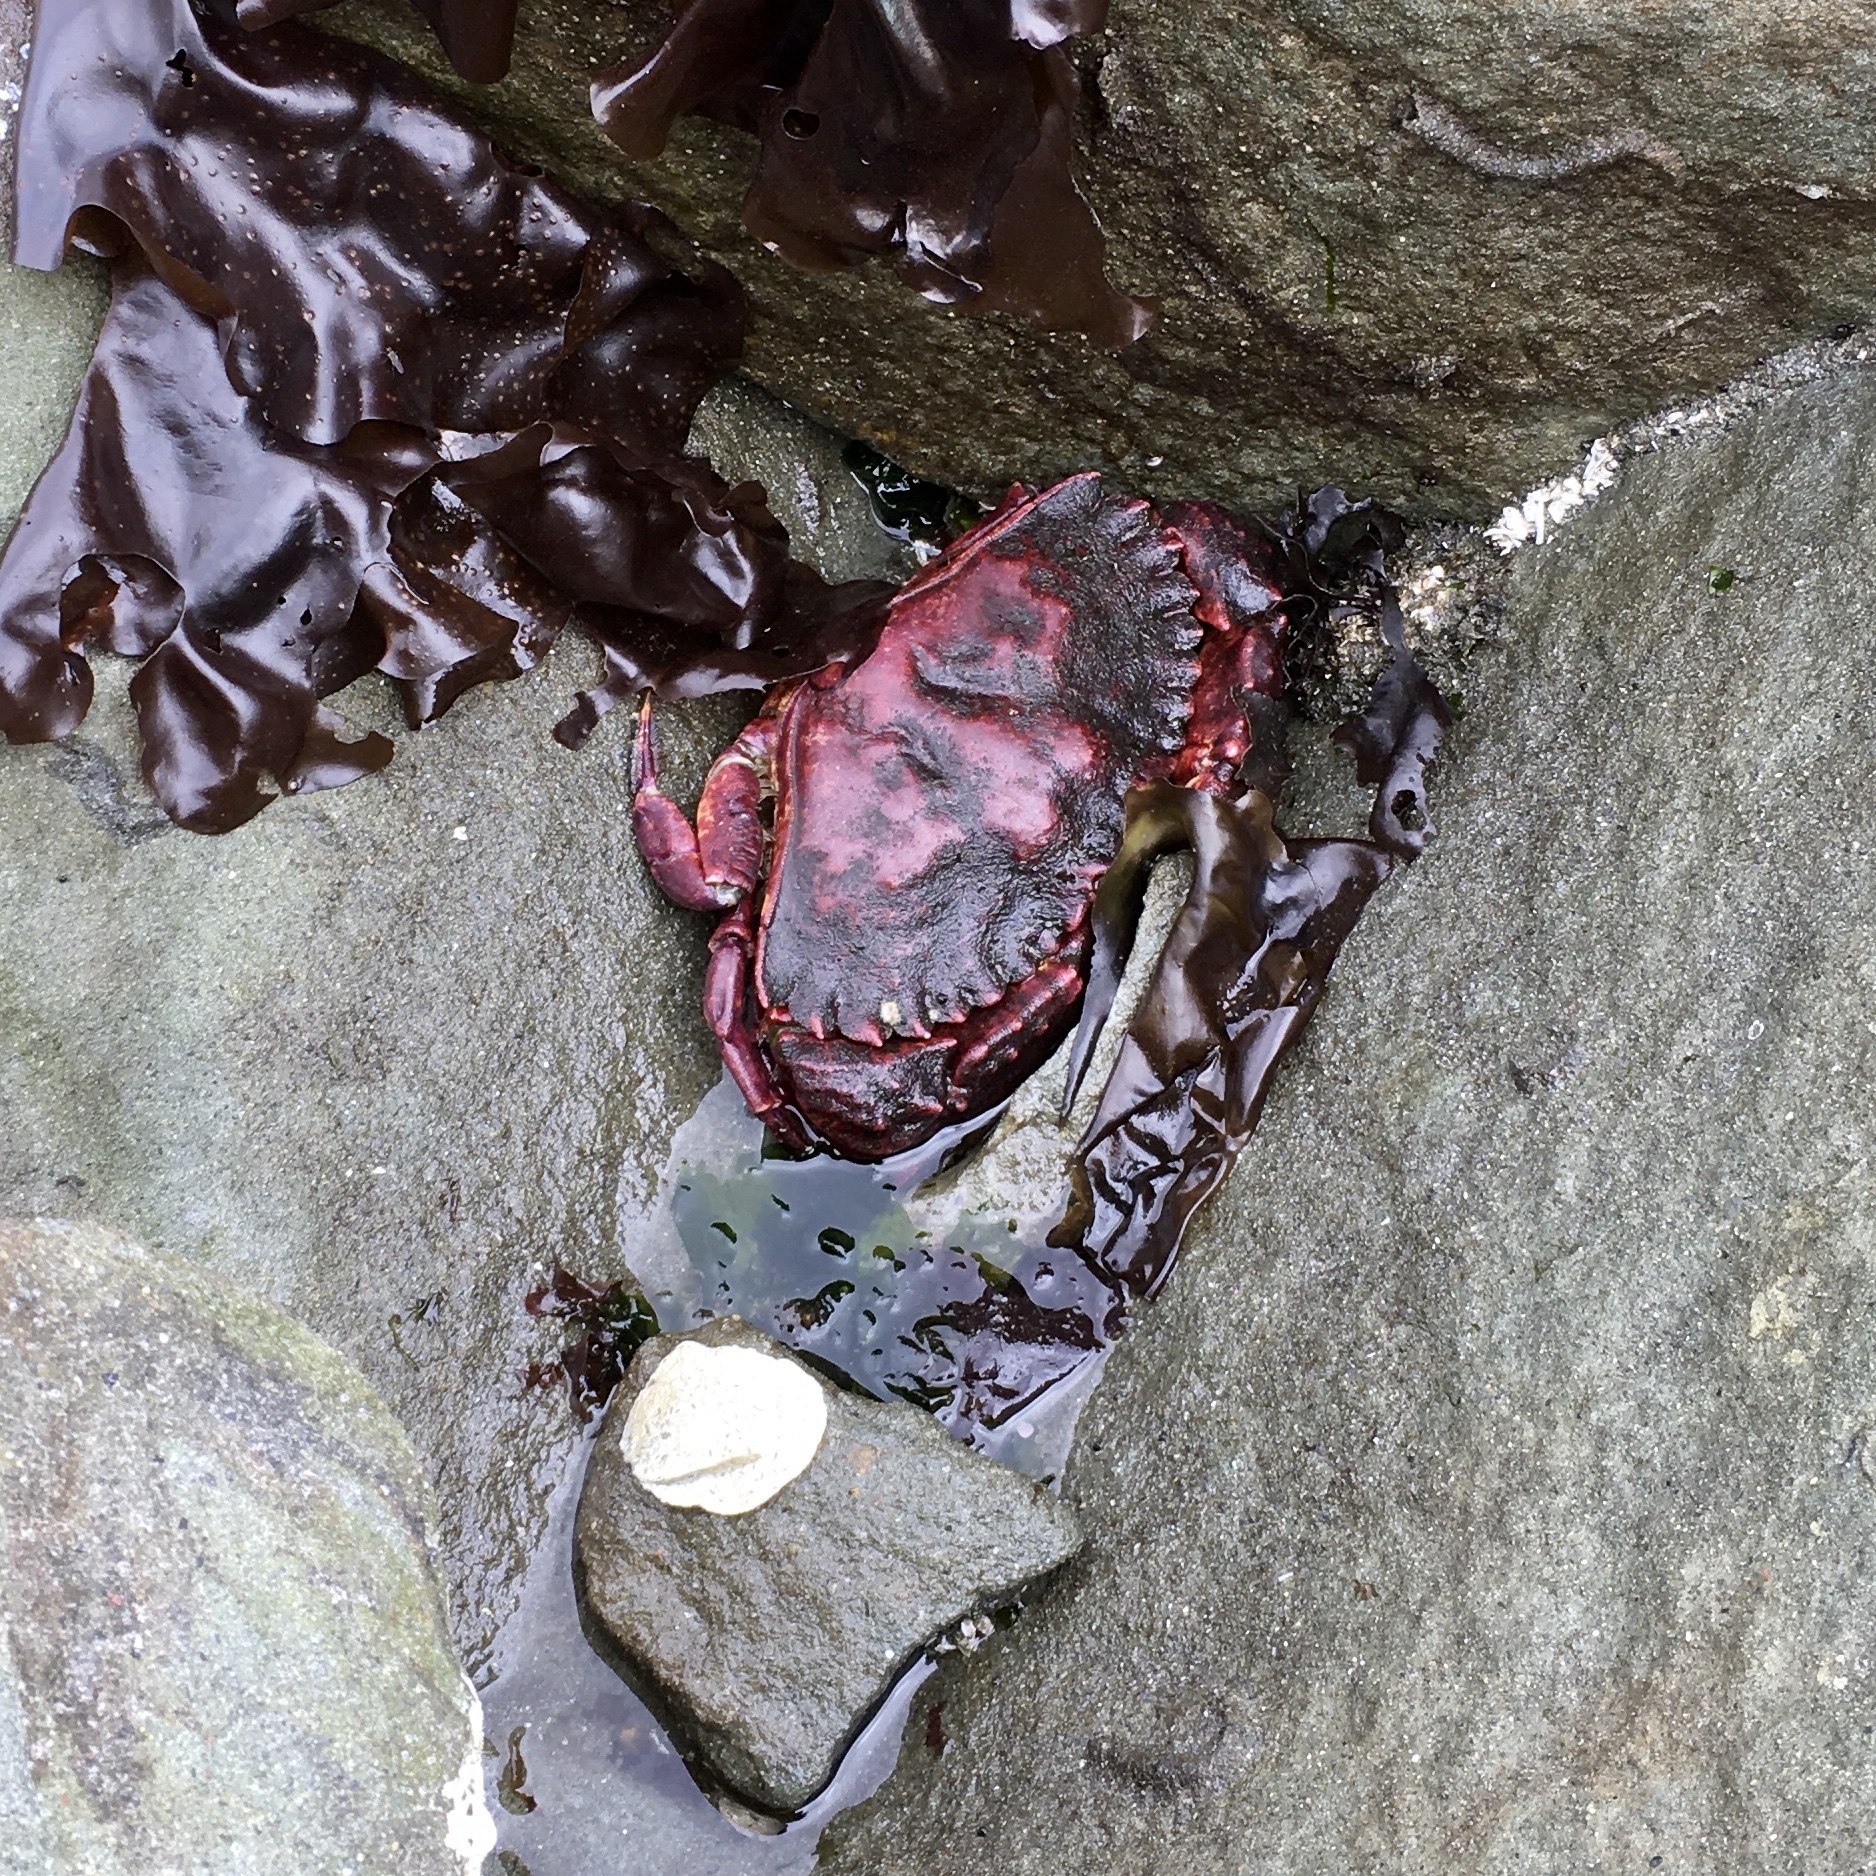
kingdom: Animalia
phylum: Arthropoda
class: Malacostraca
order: Decapoda
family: Cancridae
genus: Cancer
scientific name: Cancer productus
